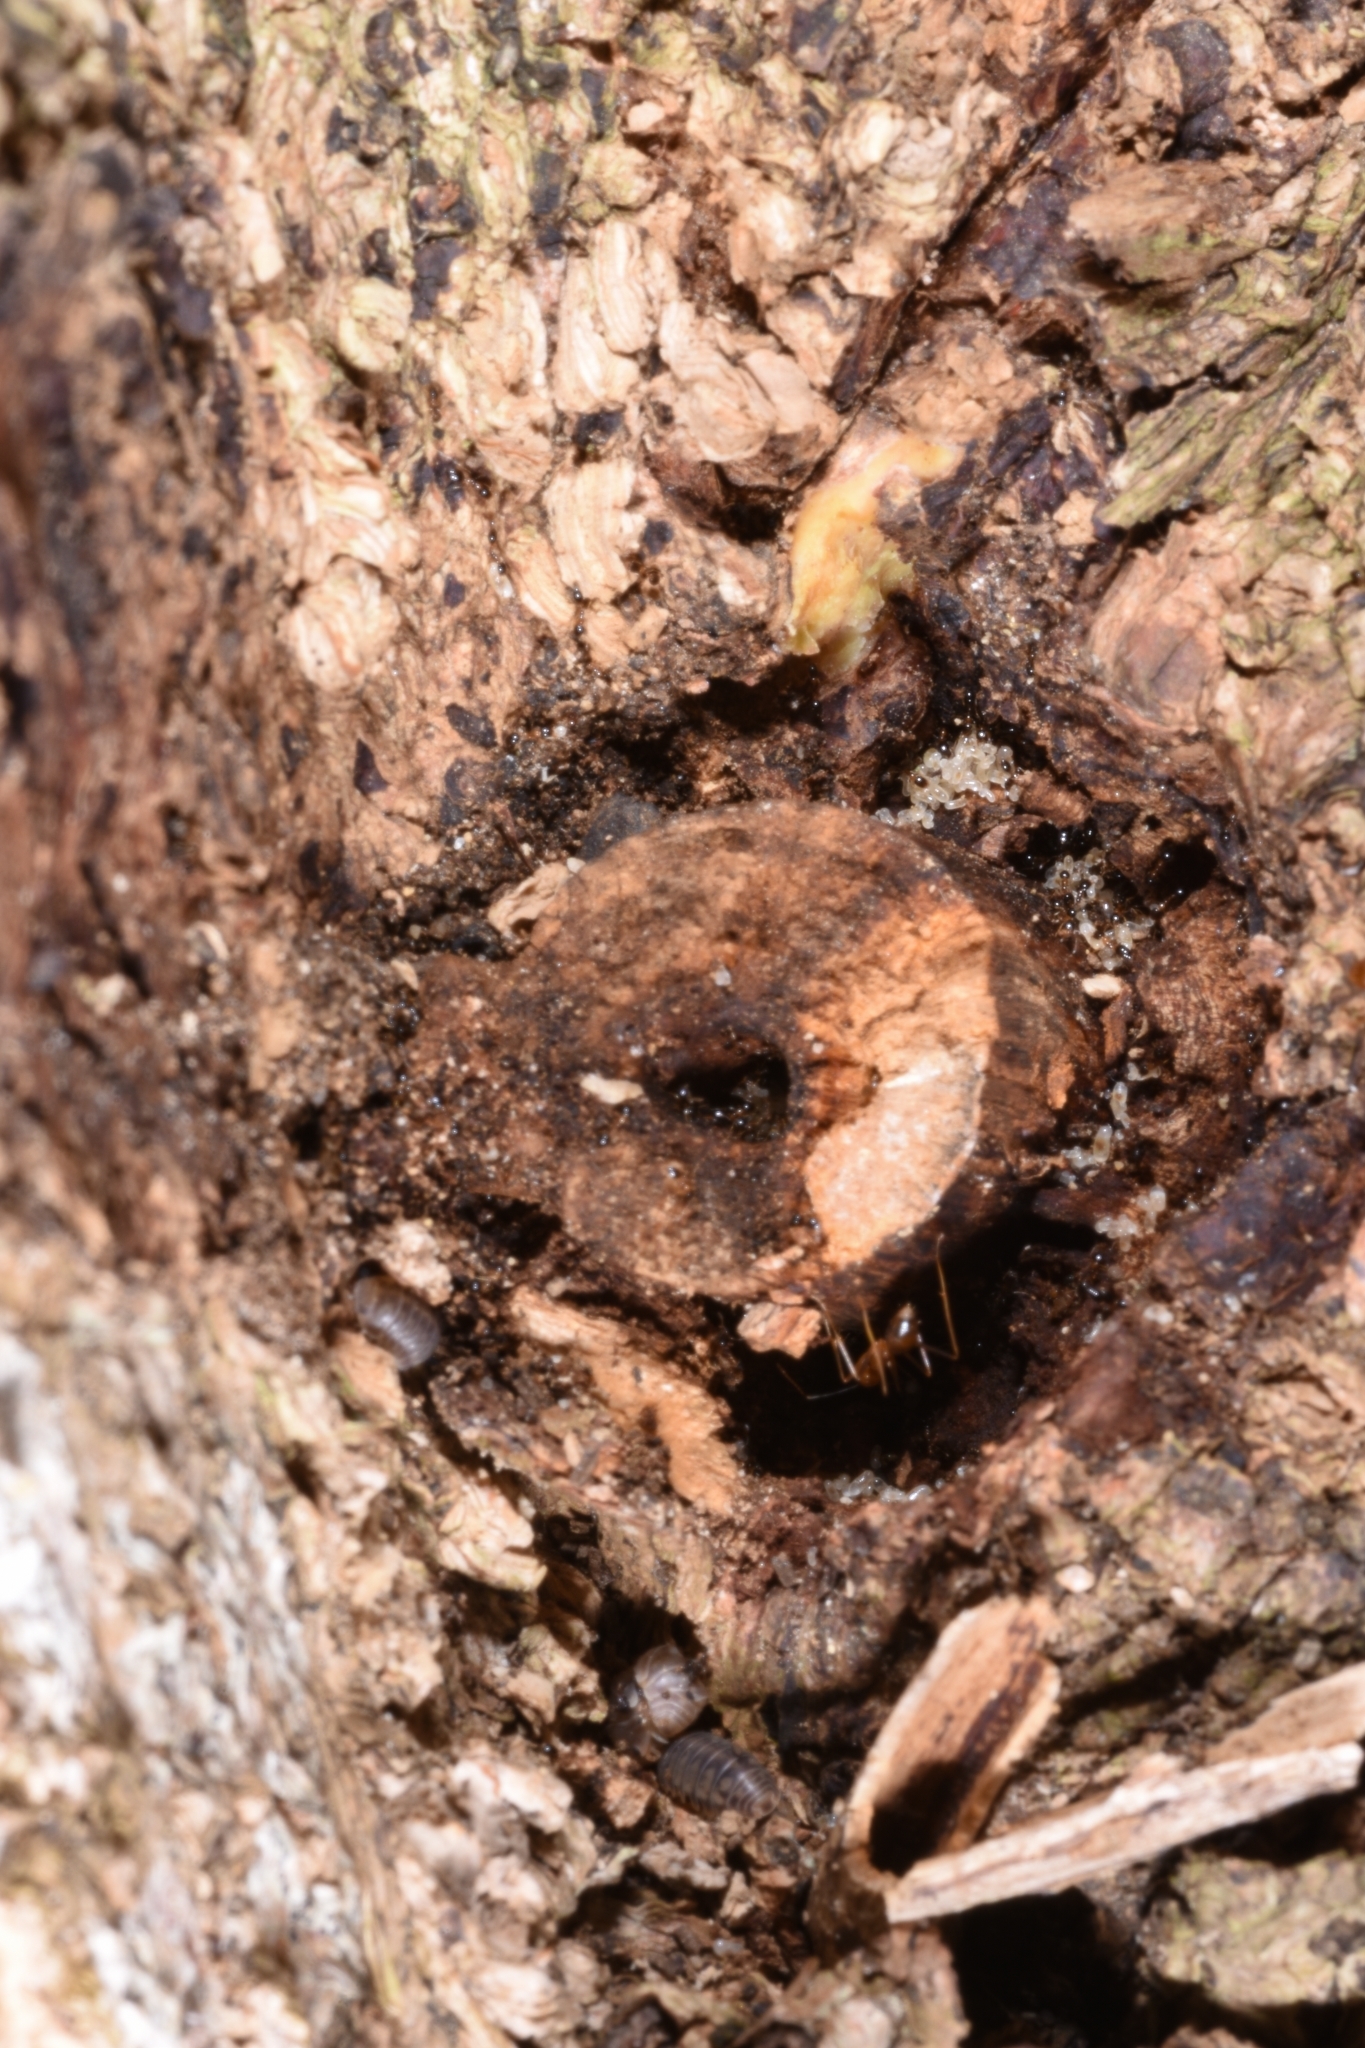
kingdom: Animalia
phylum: Arthropoda
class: Insecta
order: Hymenoptera
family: Formicidae
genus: Monomorium
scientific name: Monomorium floricola
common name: Bicolored trailing ant
